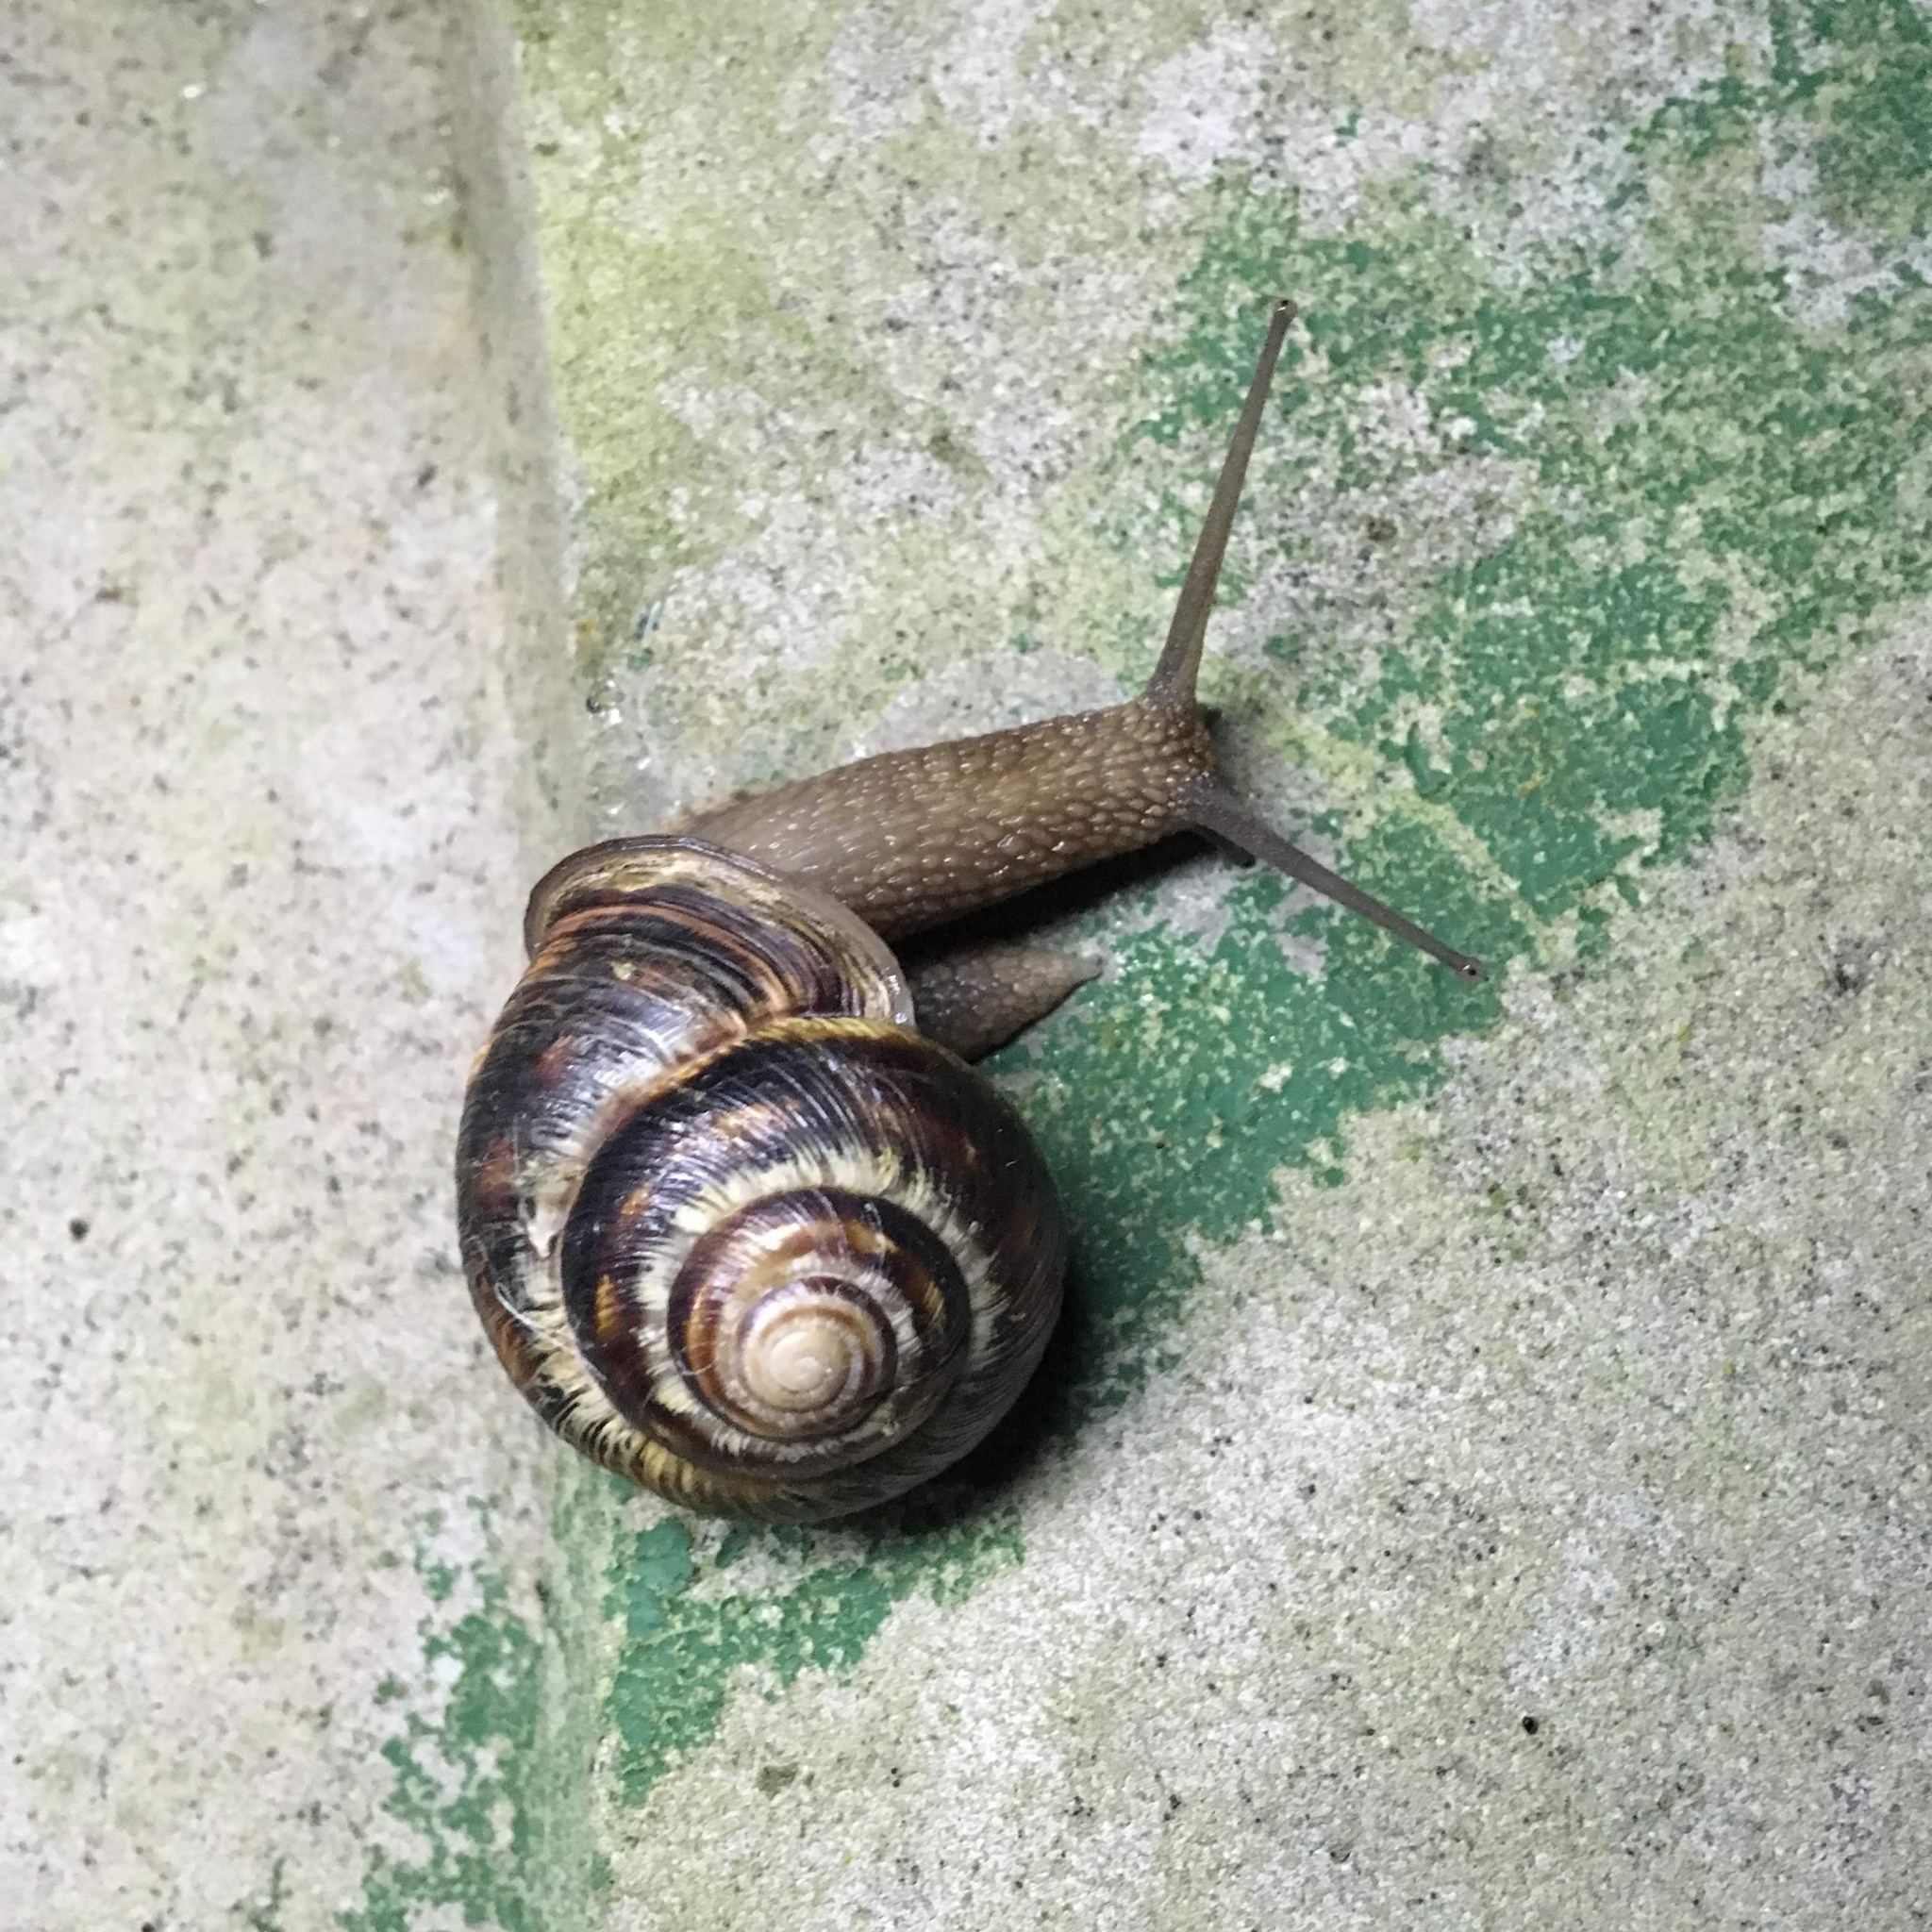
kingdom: Animalia
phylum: Mollusca
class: Gastropoda
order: Stylommatophora
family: Helicidae
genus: Caucasotachea
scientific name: Caucasotachea atrolabiata
